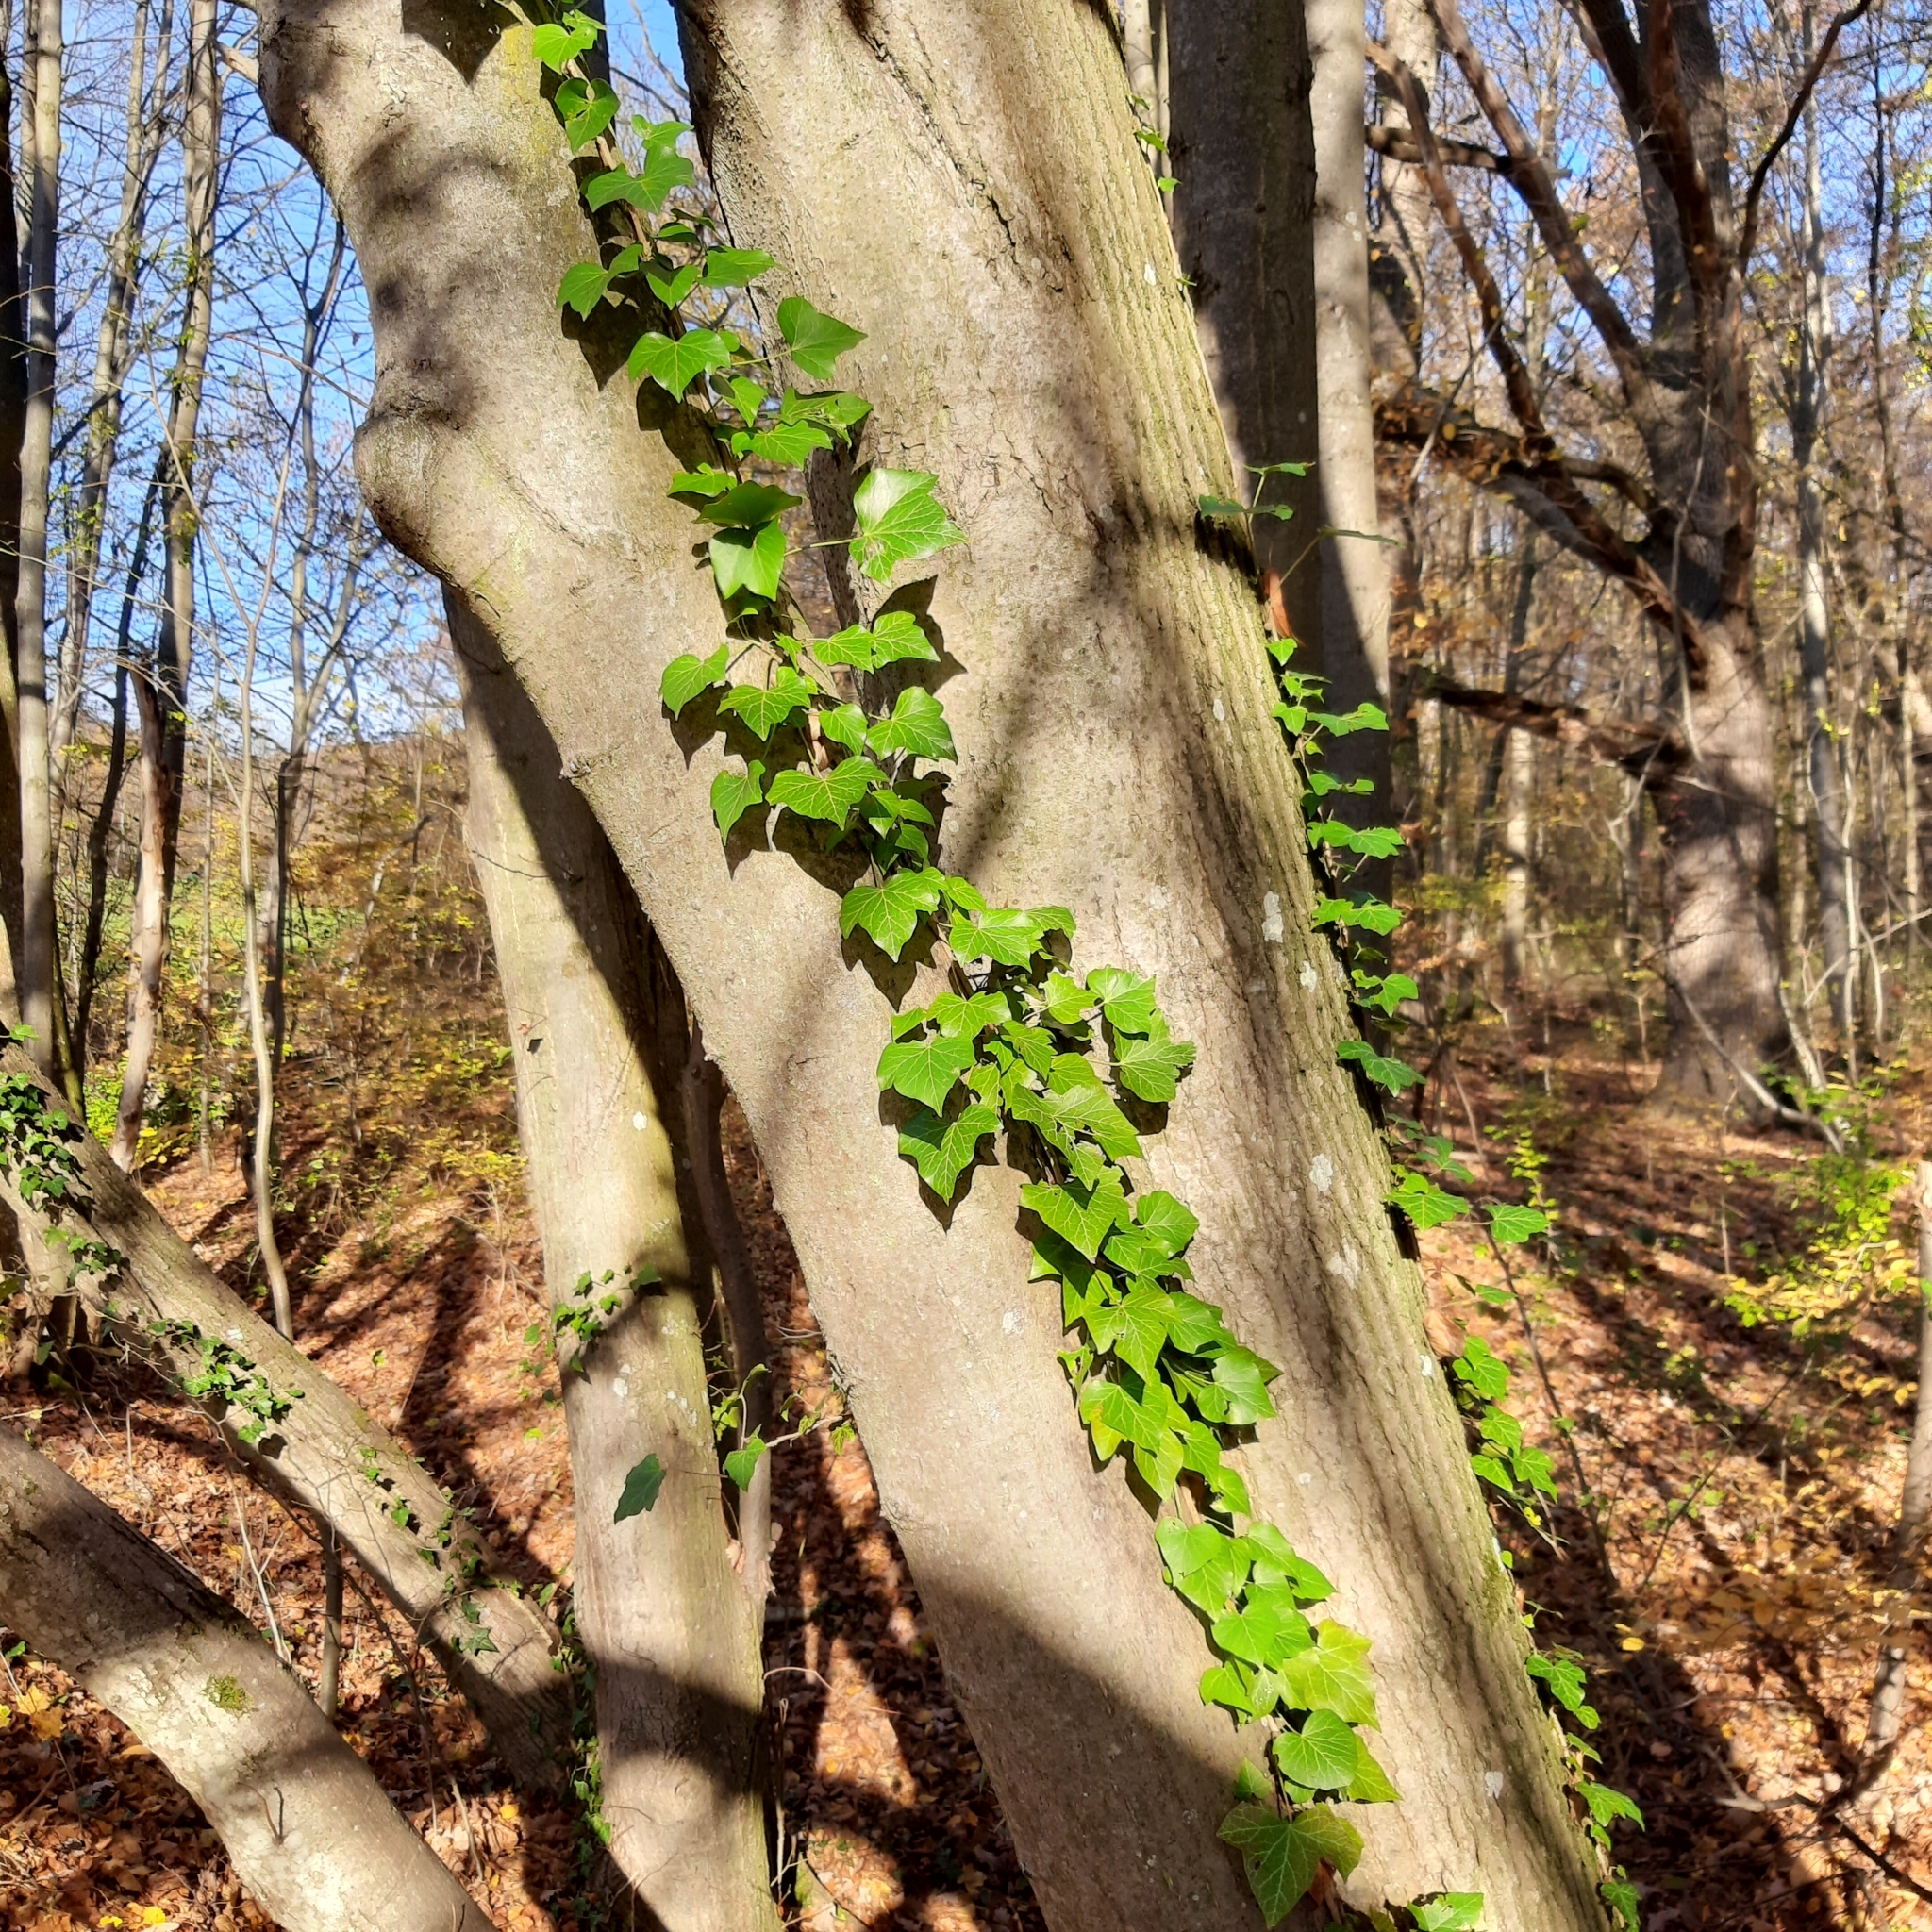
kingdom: Plantae
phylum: Tracheophyta
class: Magnoliopsida
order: Apiales
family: Araliaceae
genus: Hedera
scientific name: Hedera helix
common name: Ivy
